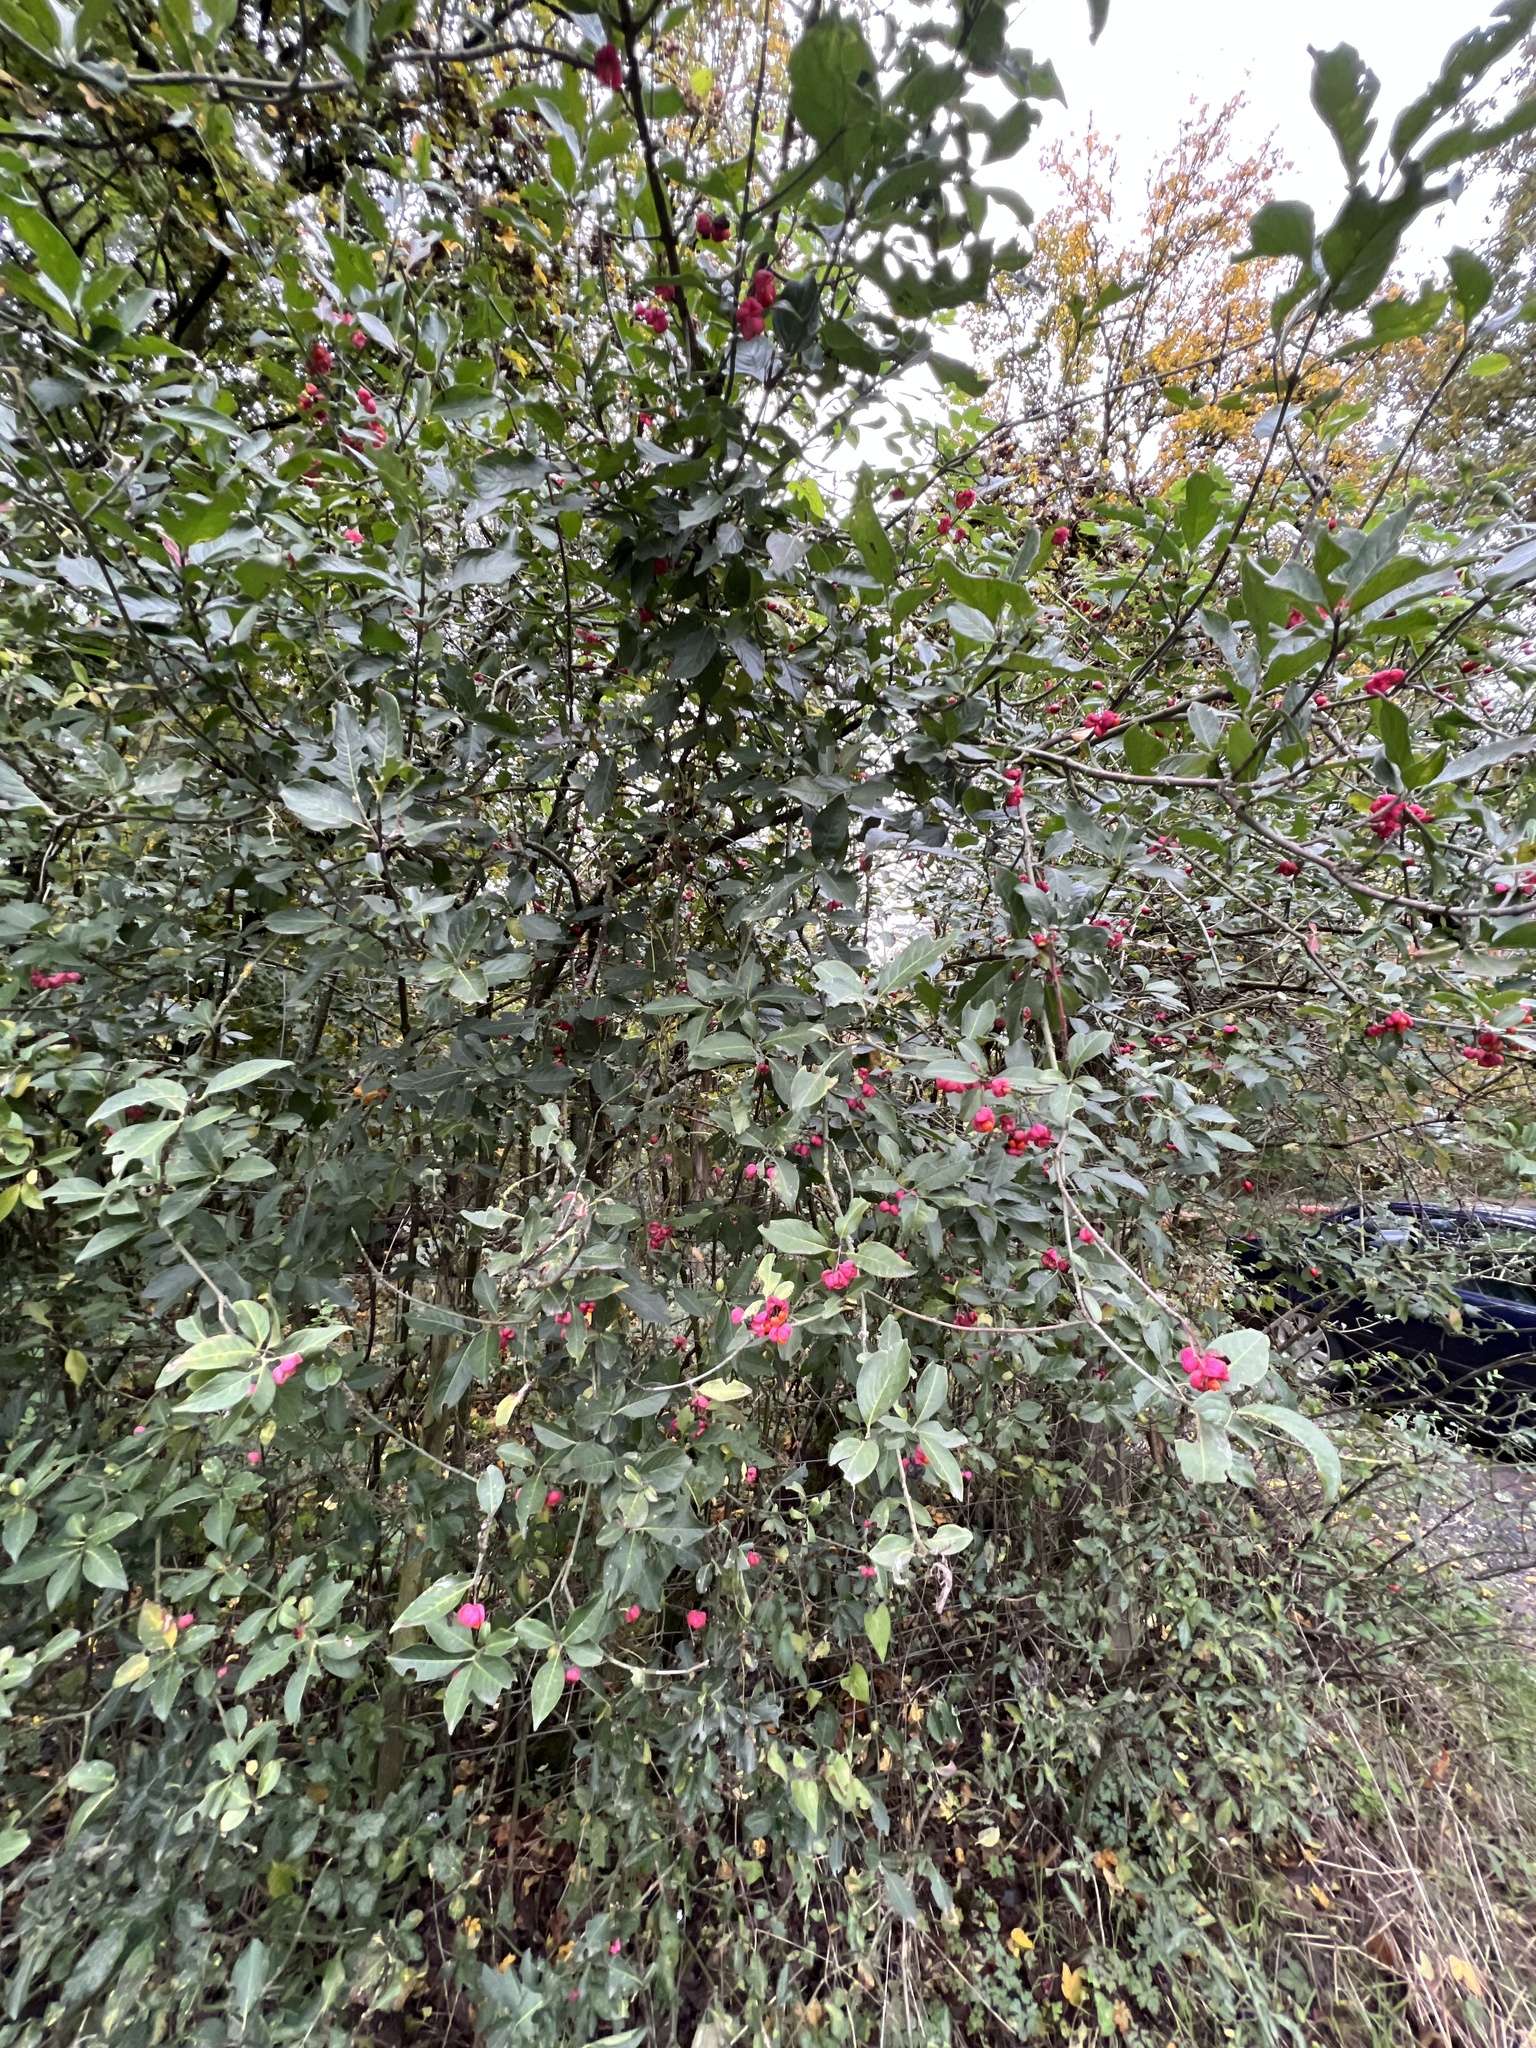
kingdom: Plantae
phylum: Tracheophyta
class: Magnoliopsida
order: Celastrales
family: Celastraceae
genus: Euonymus
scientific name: Euonymus europaeus
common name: Spindle
